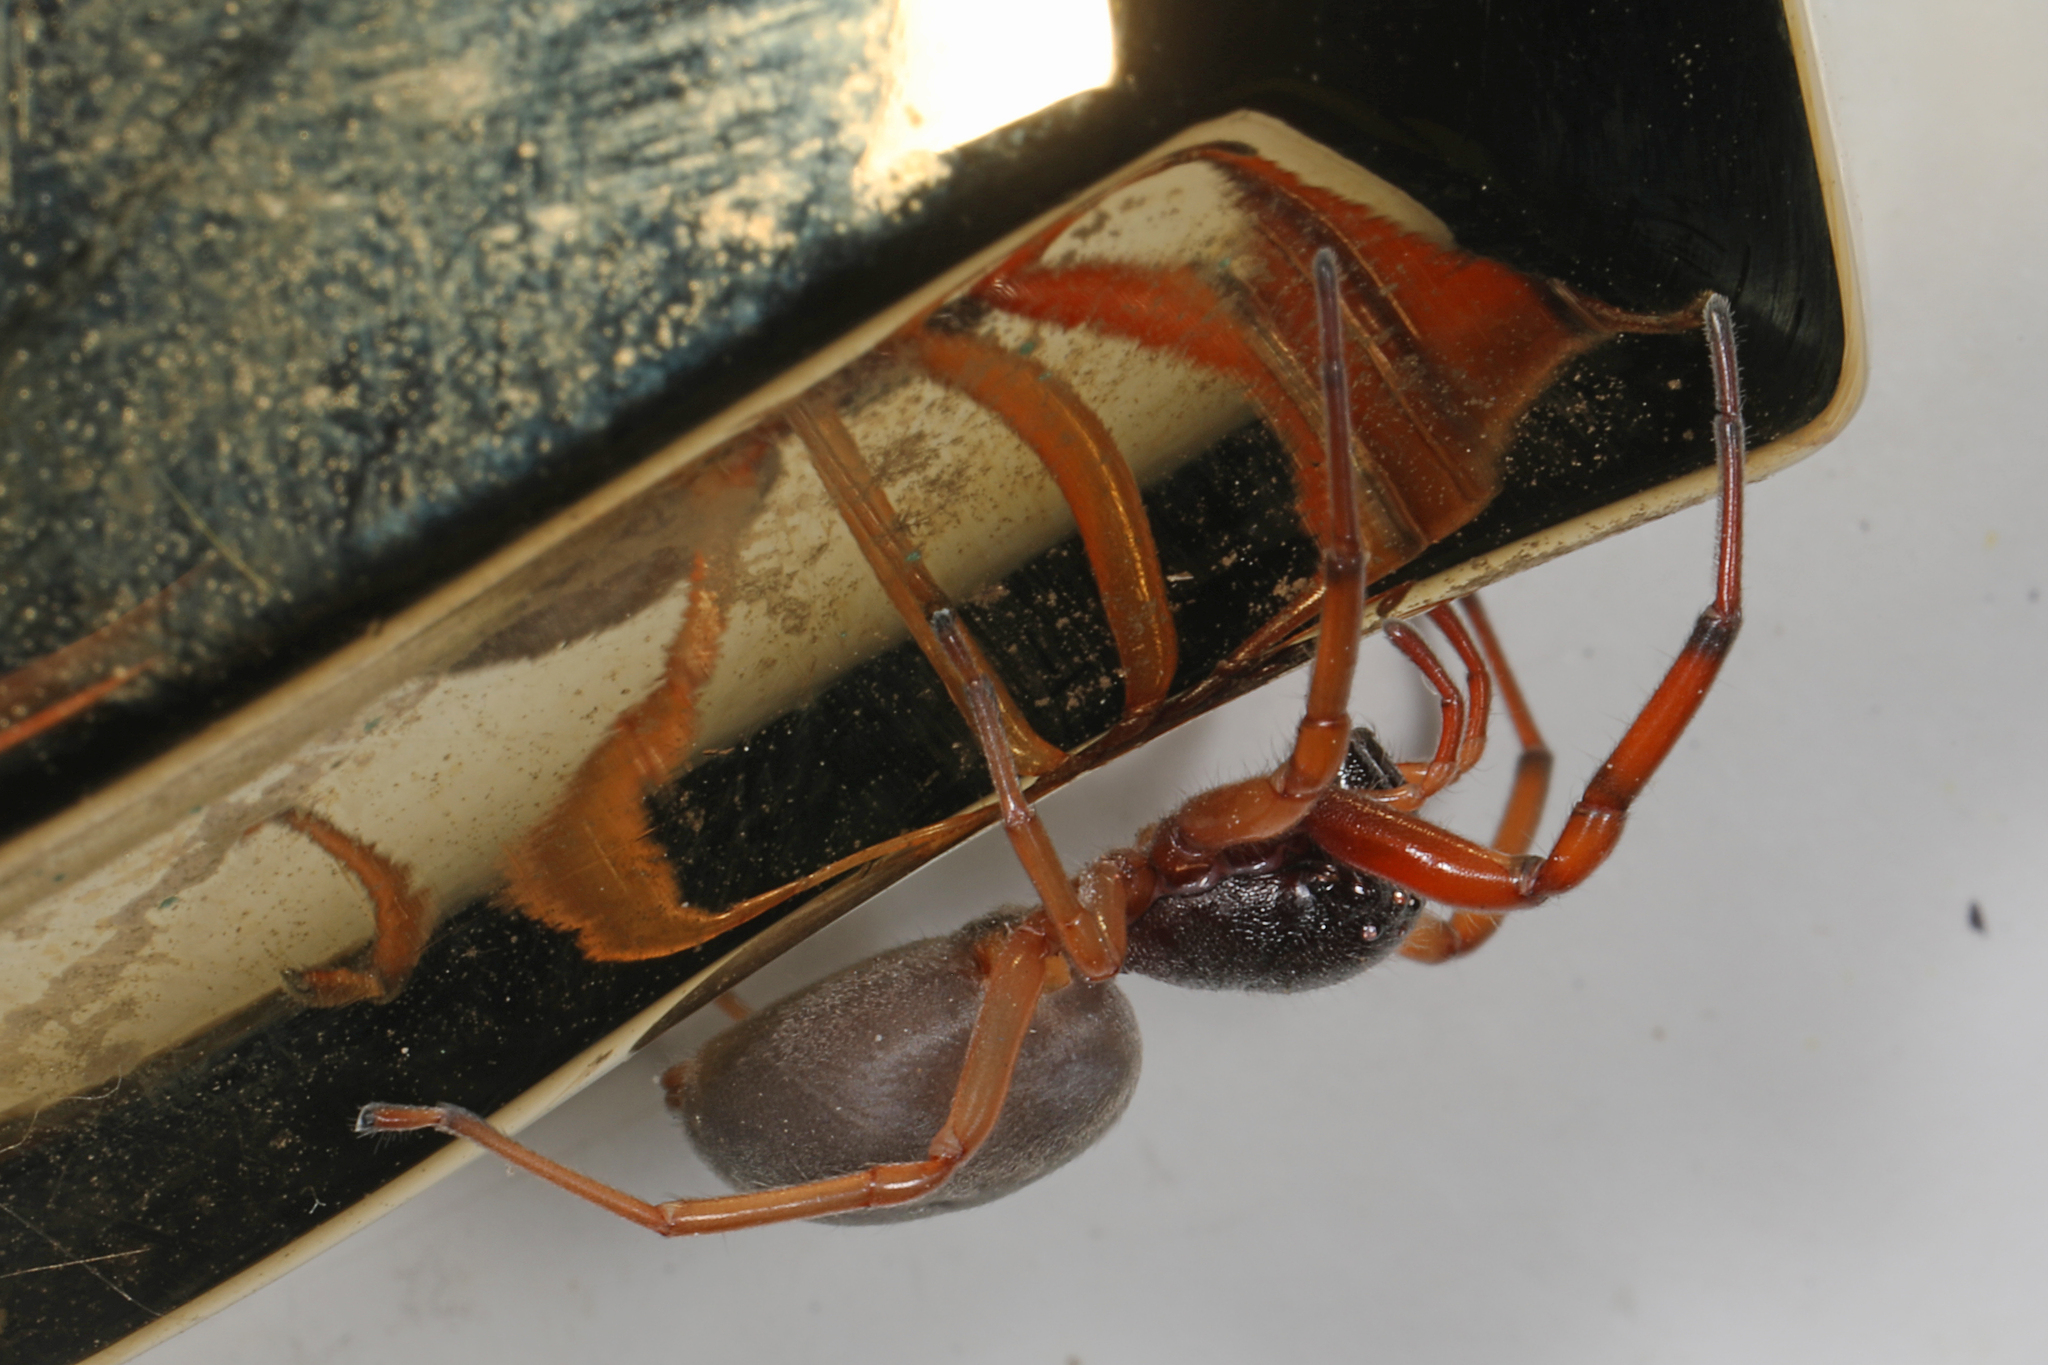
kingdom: Animalia
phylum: Arthropoda
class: Arachnida
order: Araneae
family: Trachelidae
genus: Trachelas
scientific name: Trachelas tranquillus
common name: Broad-faced sac spider
